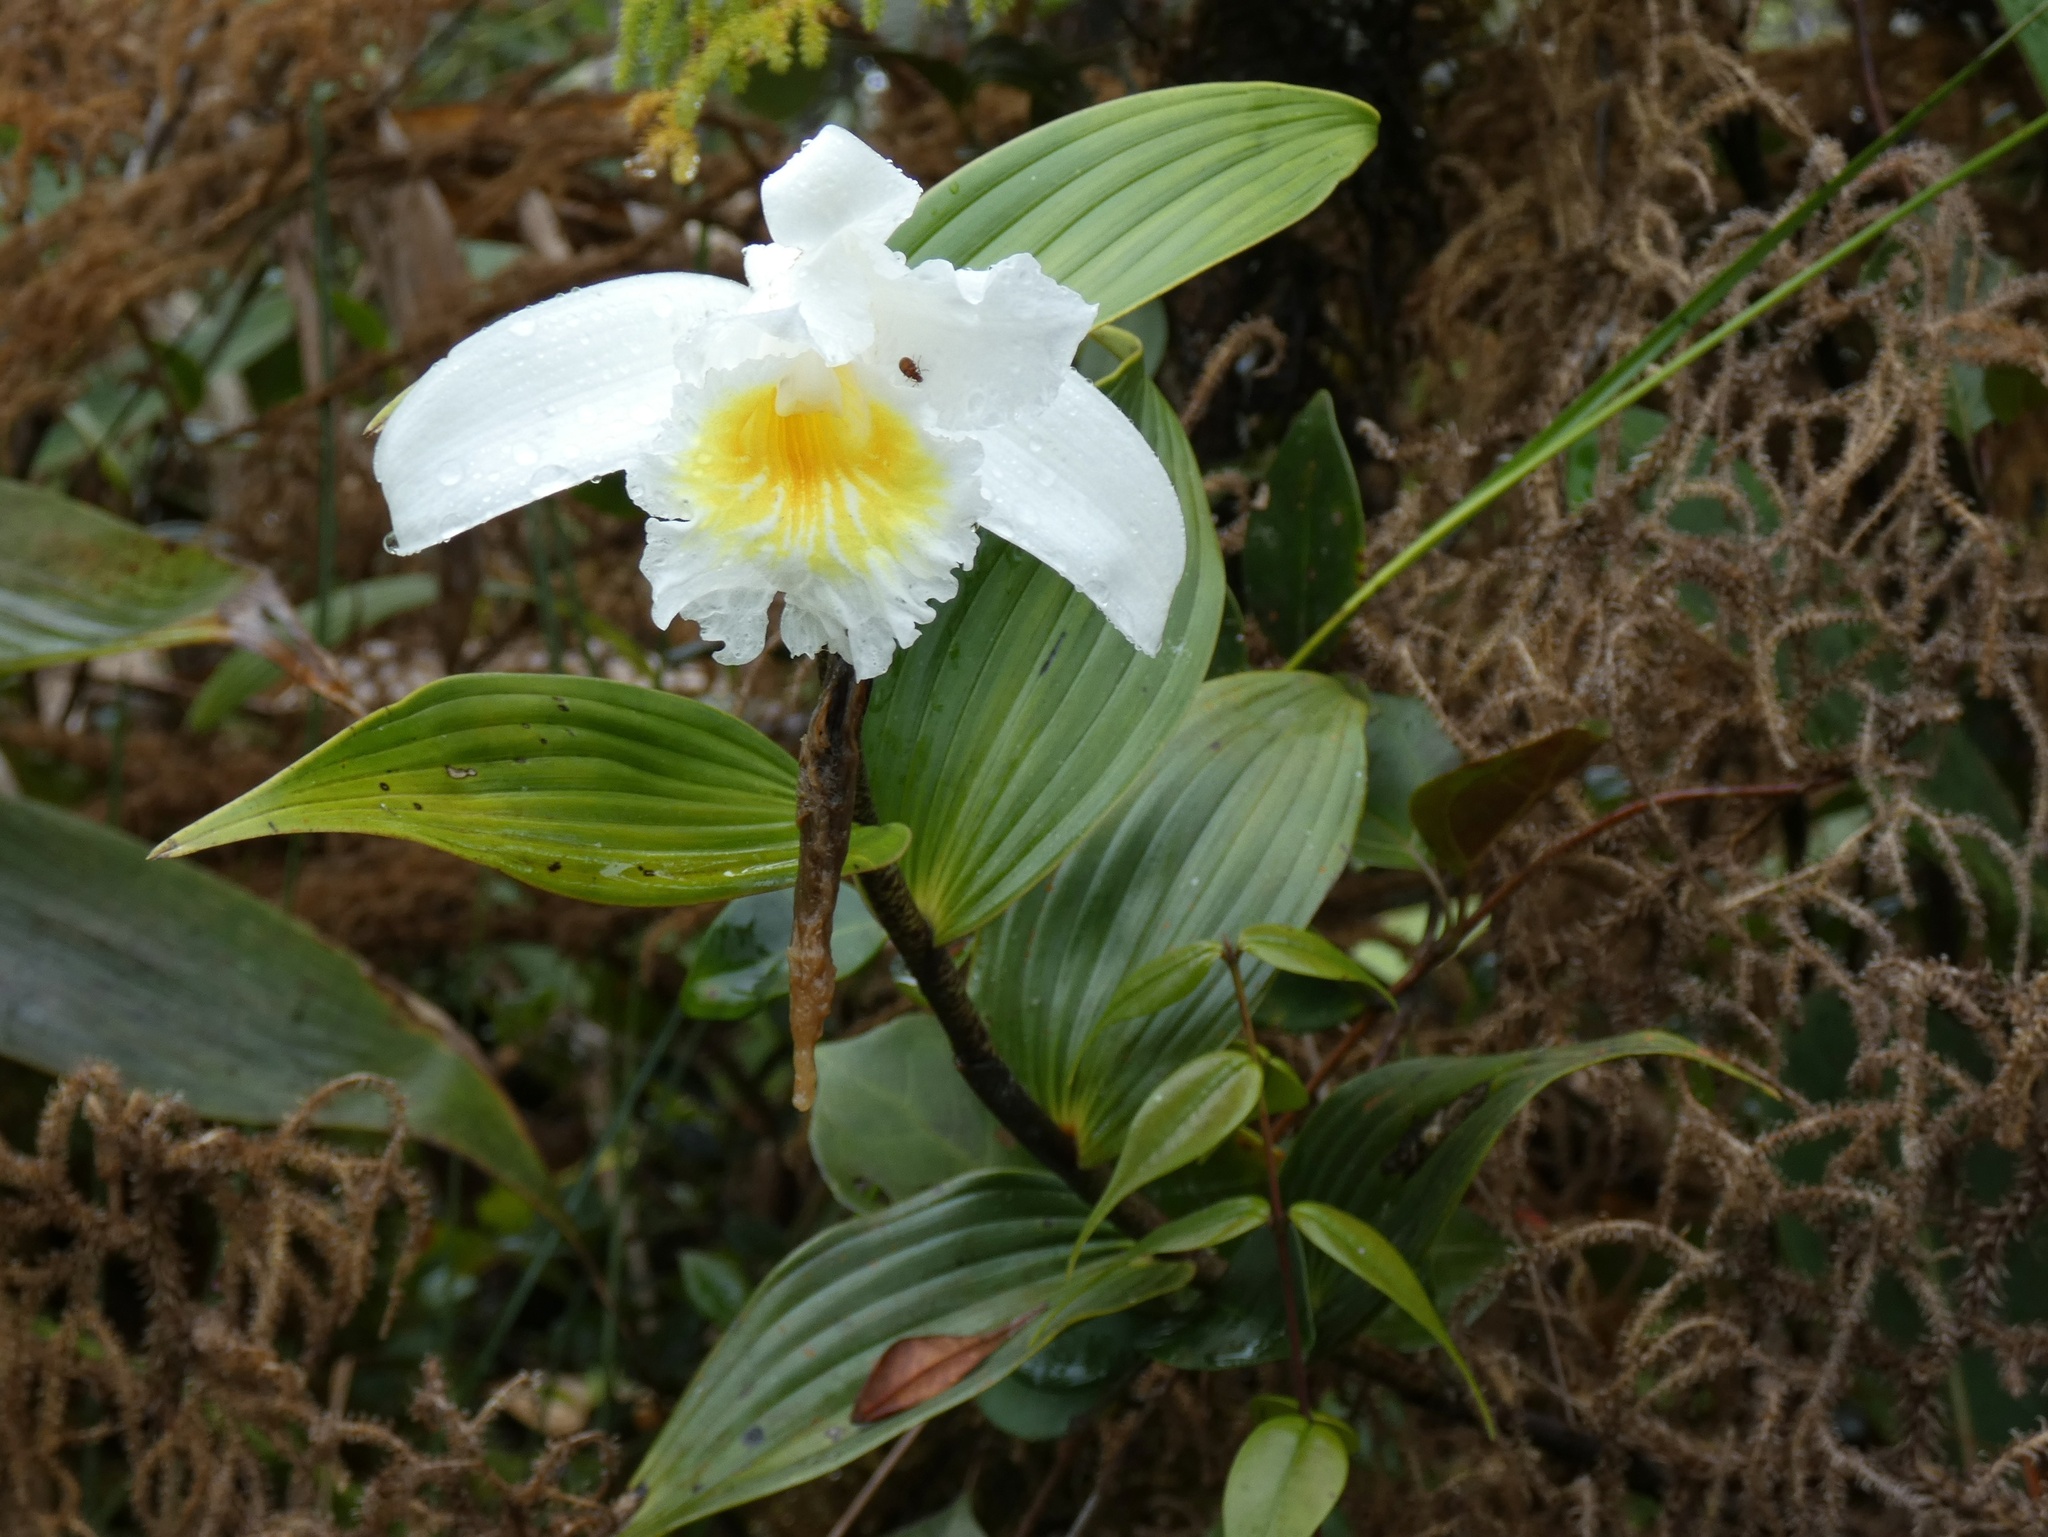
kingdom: Plantae
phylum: Tracheophyta
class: Liliopsida
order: Asparagales
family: Orchidaceae
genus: Sobralia
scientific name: Sobralia chrysostoma
